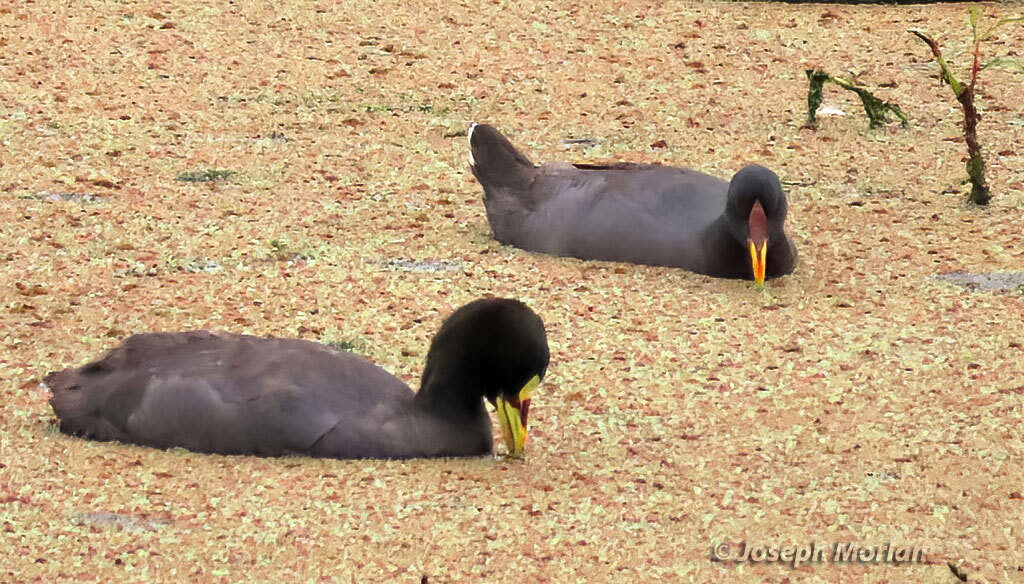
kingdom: Animalia
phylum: Chordata
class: Aves
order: Gruiformes
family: Rallidae
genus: Fulica
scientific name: Fulica armillata
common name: Red-gartered coot
